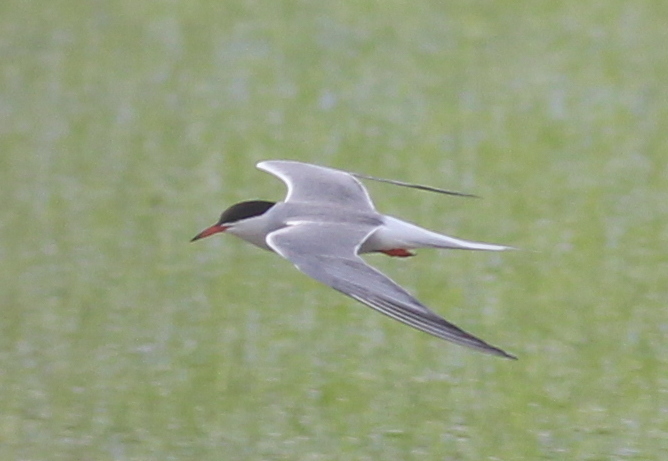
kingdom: Animalia
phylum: Chordata
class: Aves
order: Charadriiformes
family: Laridae
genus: Sterna
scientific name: Sterna hirundo
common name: Common tern
